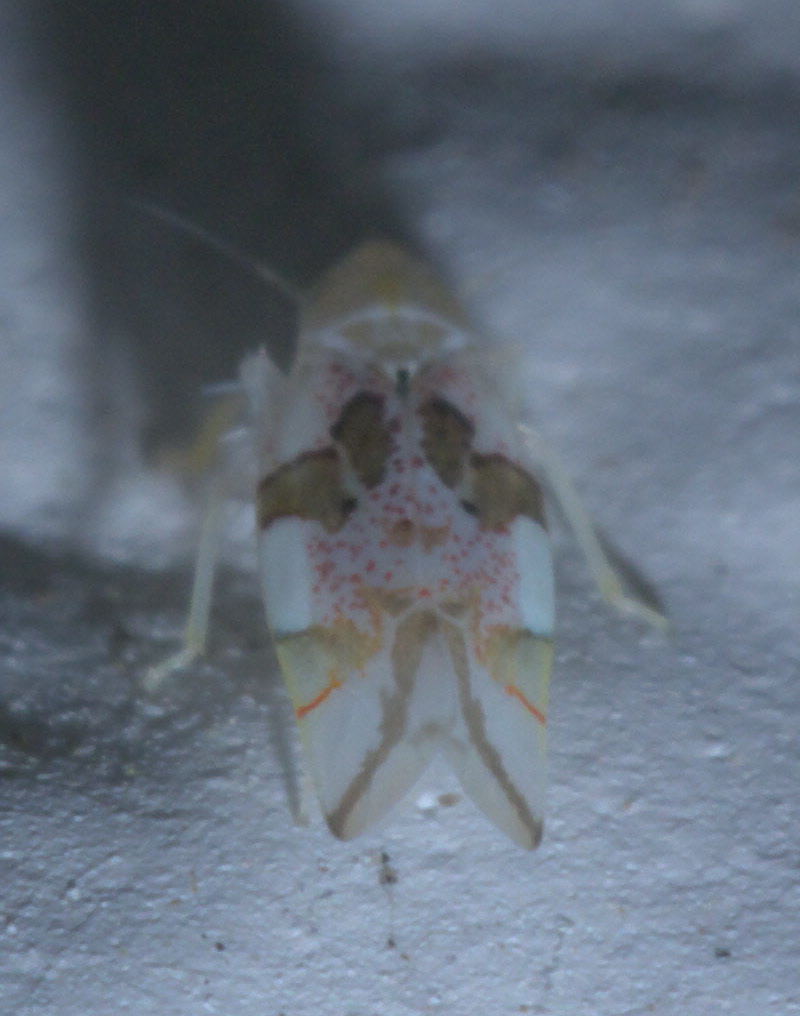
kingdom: Animalia
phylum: Arthropoda
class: Insecta
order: Hemiptera
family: Cicadellidae
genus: Hymetta
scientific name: Hymetta balteata
